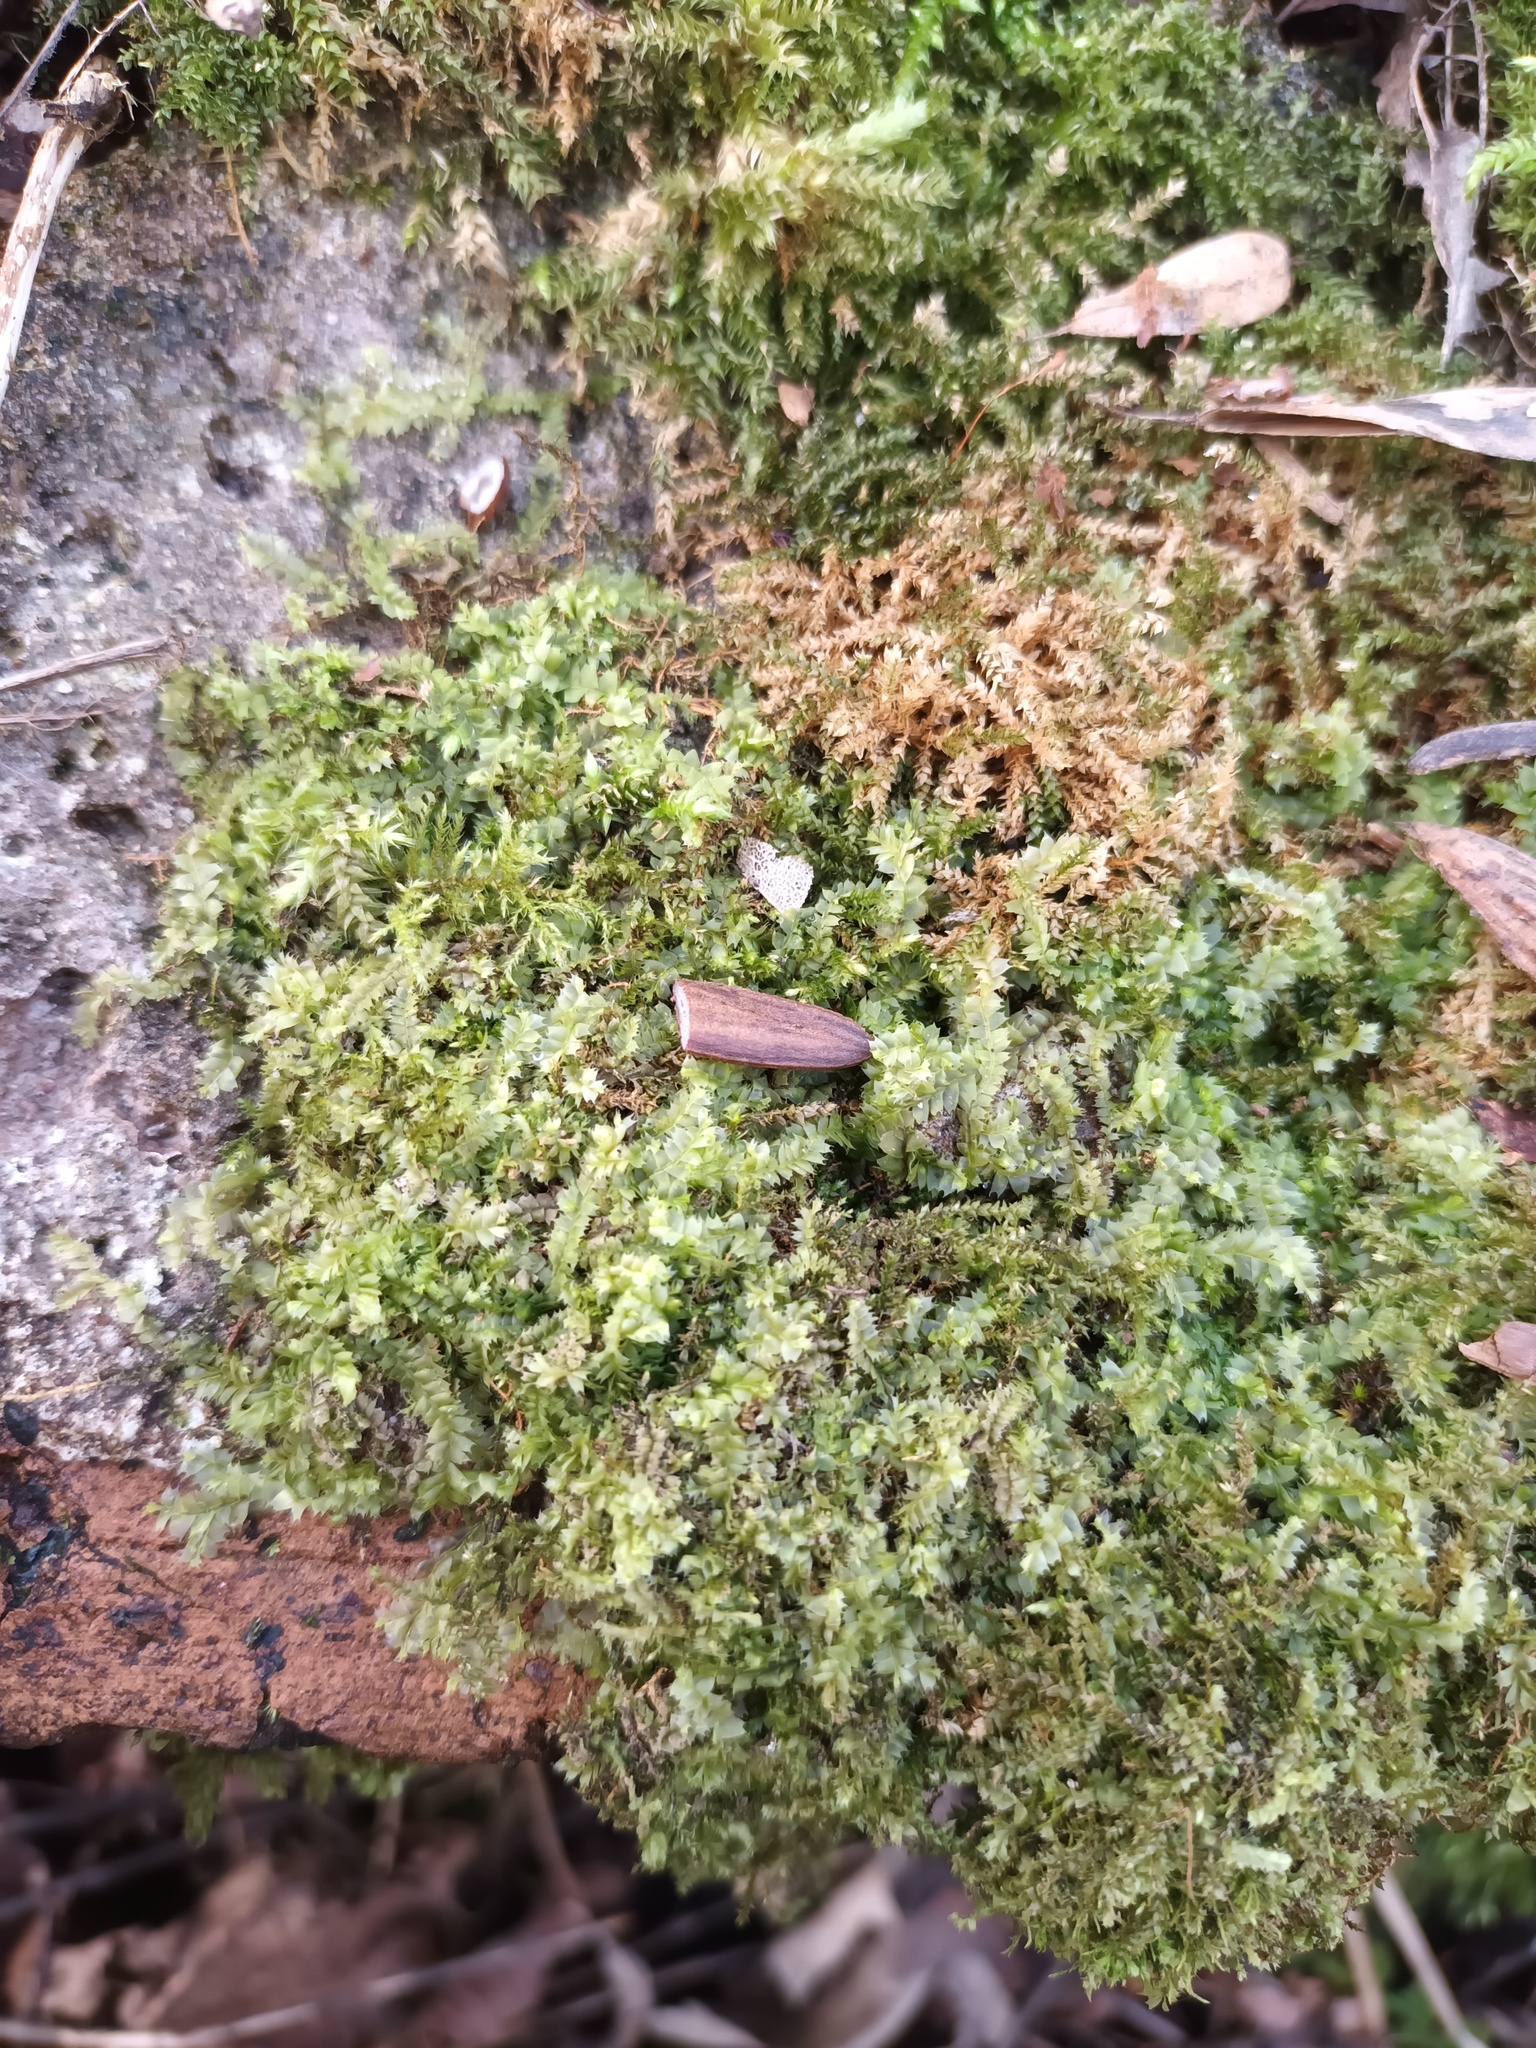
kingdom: Plantae
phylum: Marchantiophyta
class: Jungermanniopsida
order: Jungermanniales
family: Lophocoleaceae
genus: Lophocolea
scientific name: Lophocolea bidentata
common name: Bifid crestwort
